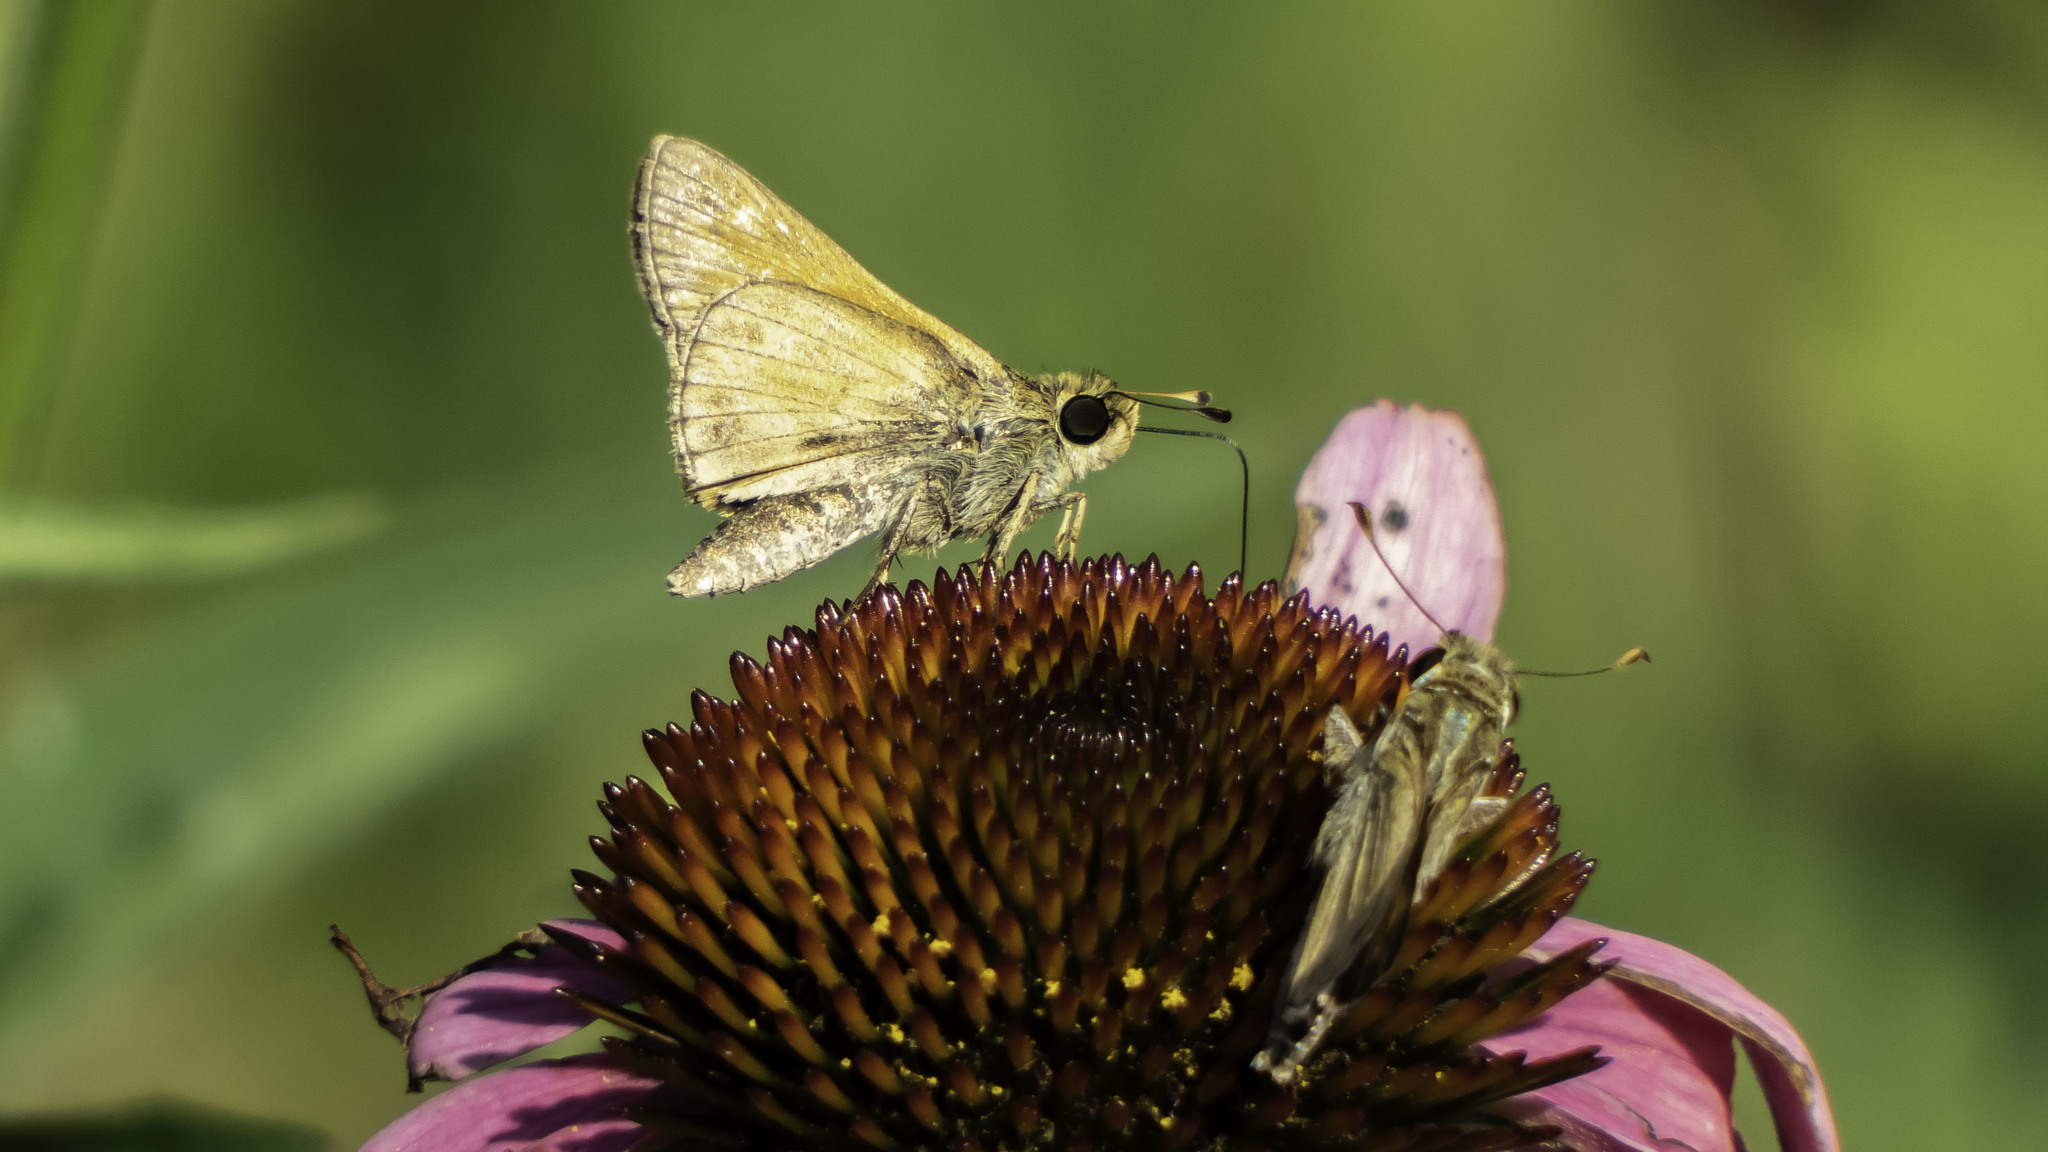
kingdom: Animalia
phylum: Arthropoda
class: Insecta
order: Lepidoptera
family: Hesperiidae
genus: Atalopedes
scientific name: Atalopedes
